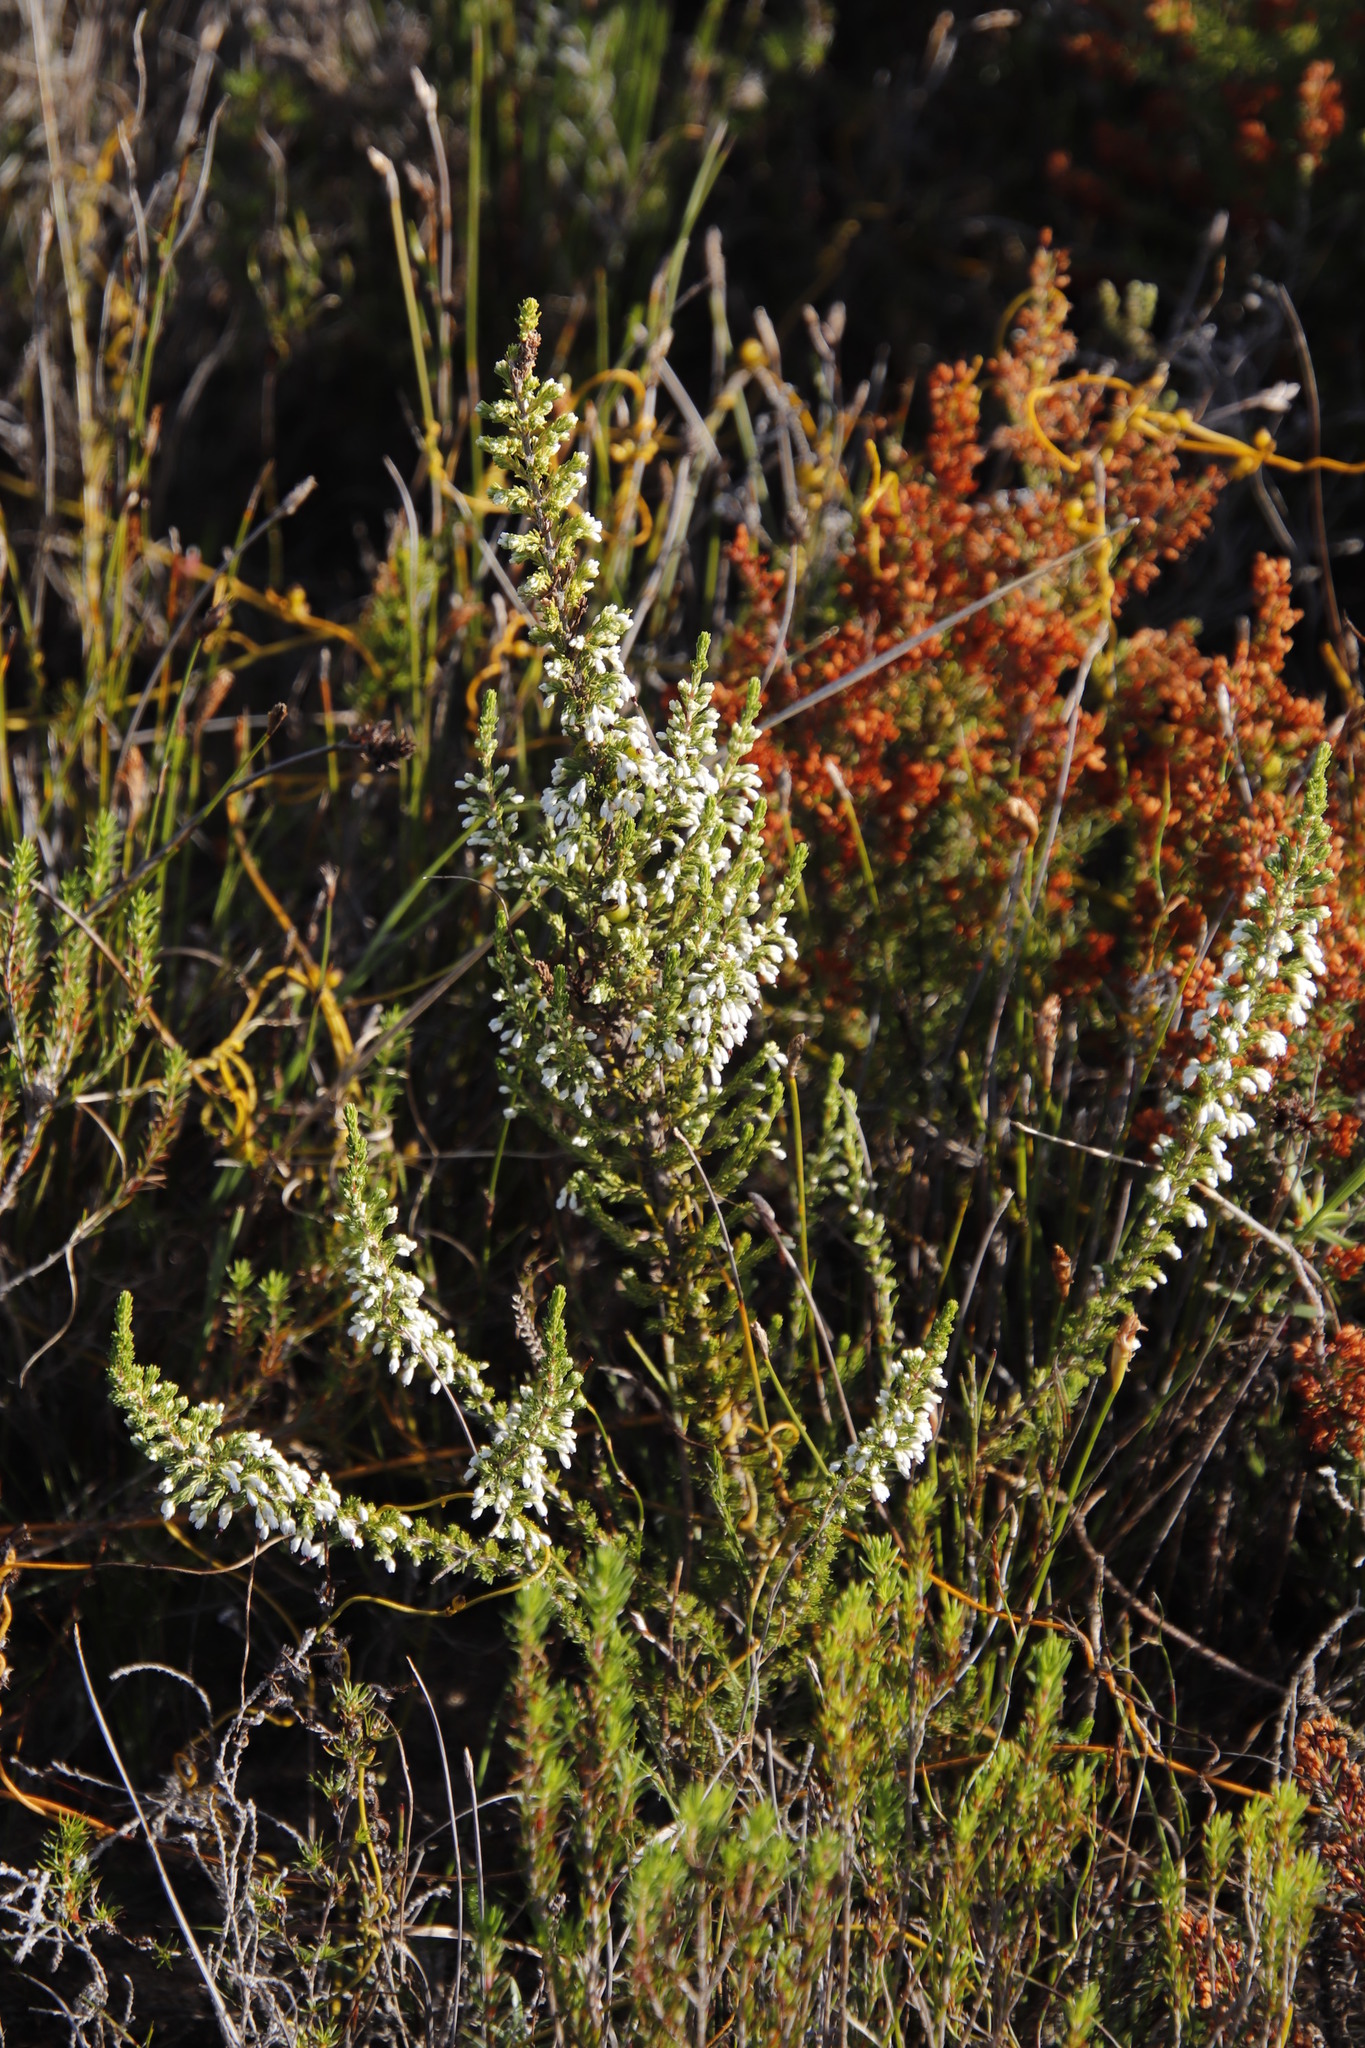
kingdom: Plantae
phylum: Tracheophyta
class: Magnoliopsida
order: Ericales
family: Ericaceae
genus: Erica
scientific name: Erica imbricata
